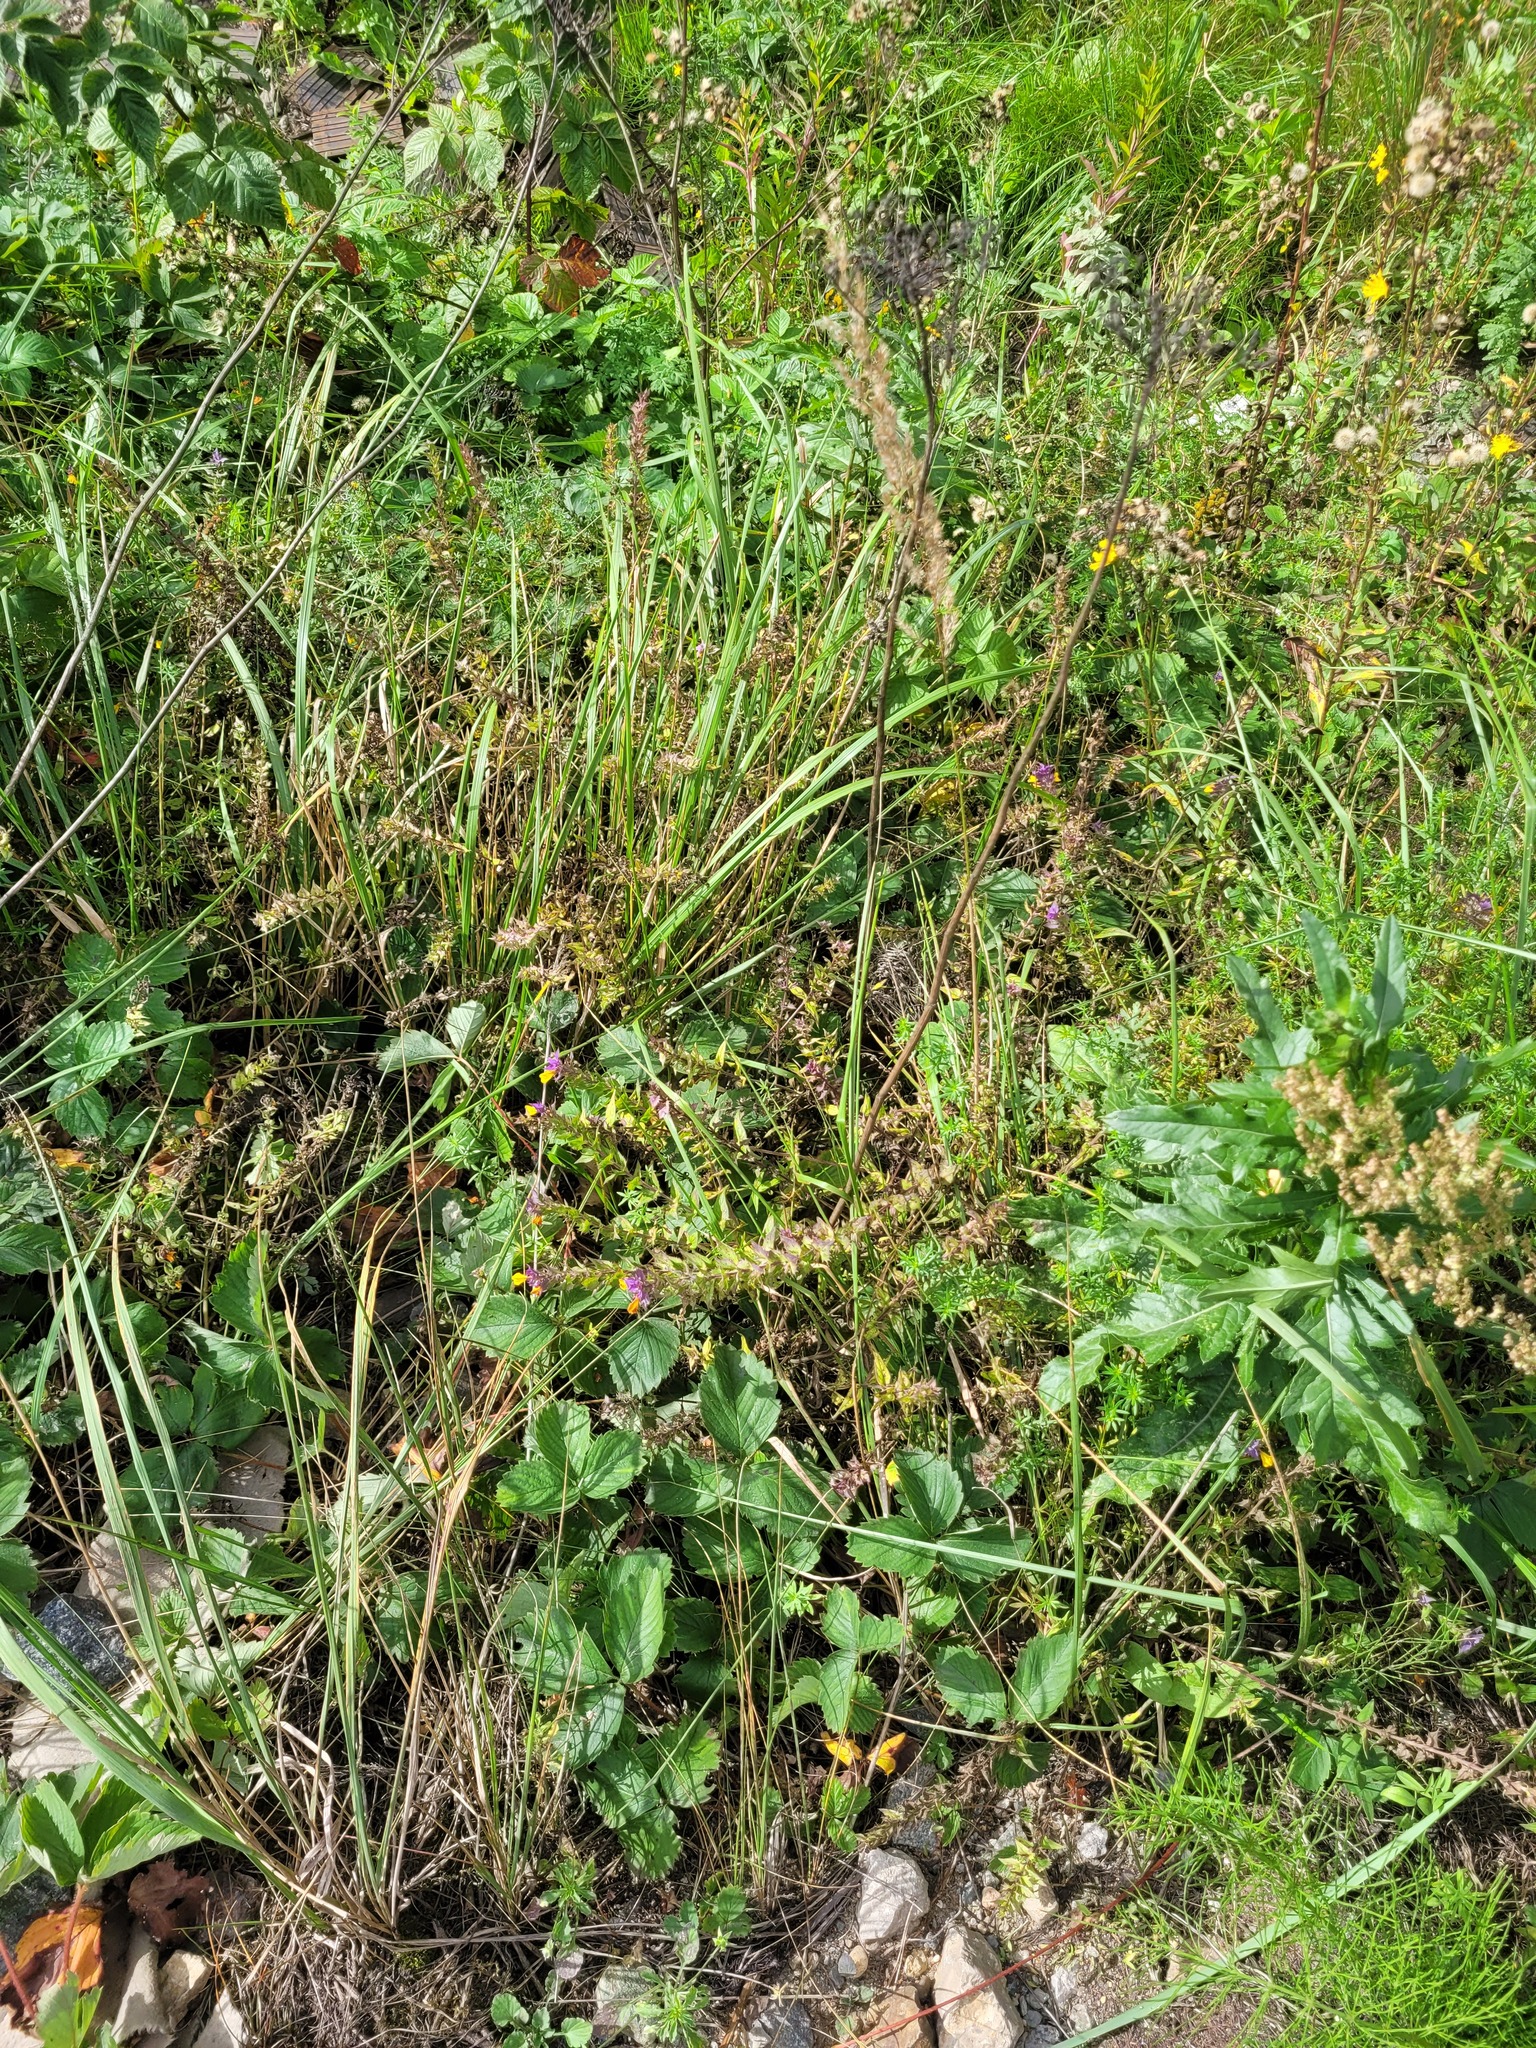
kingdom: Plantae
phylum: Tracheophyta
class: Magnoliopsida
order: Lamiales
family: Orobanchaceae
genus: Melampyrum
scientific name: Melampyrum nemorosum
